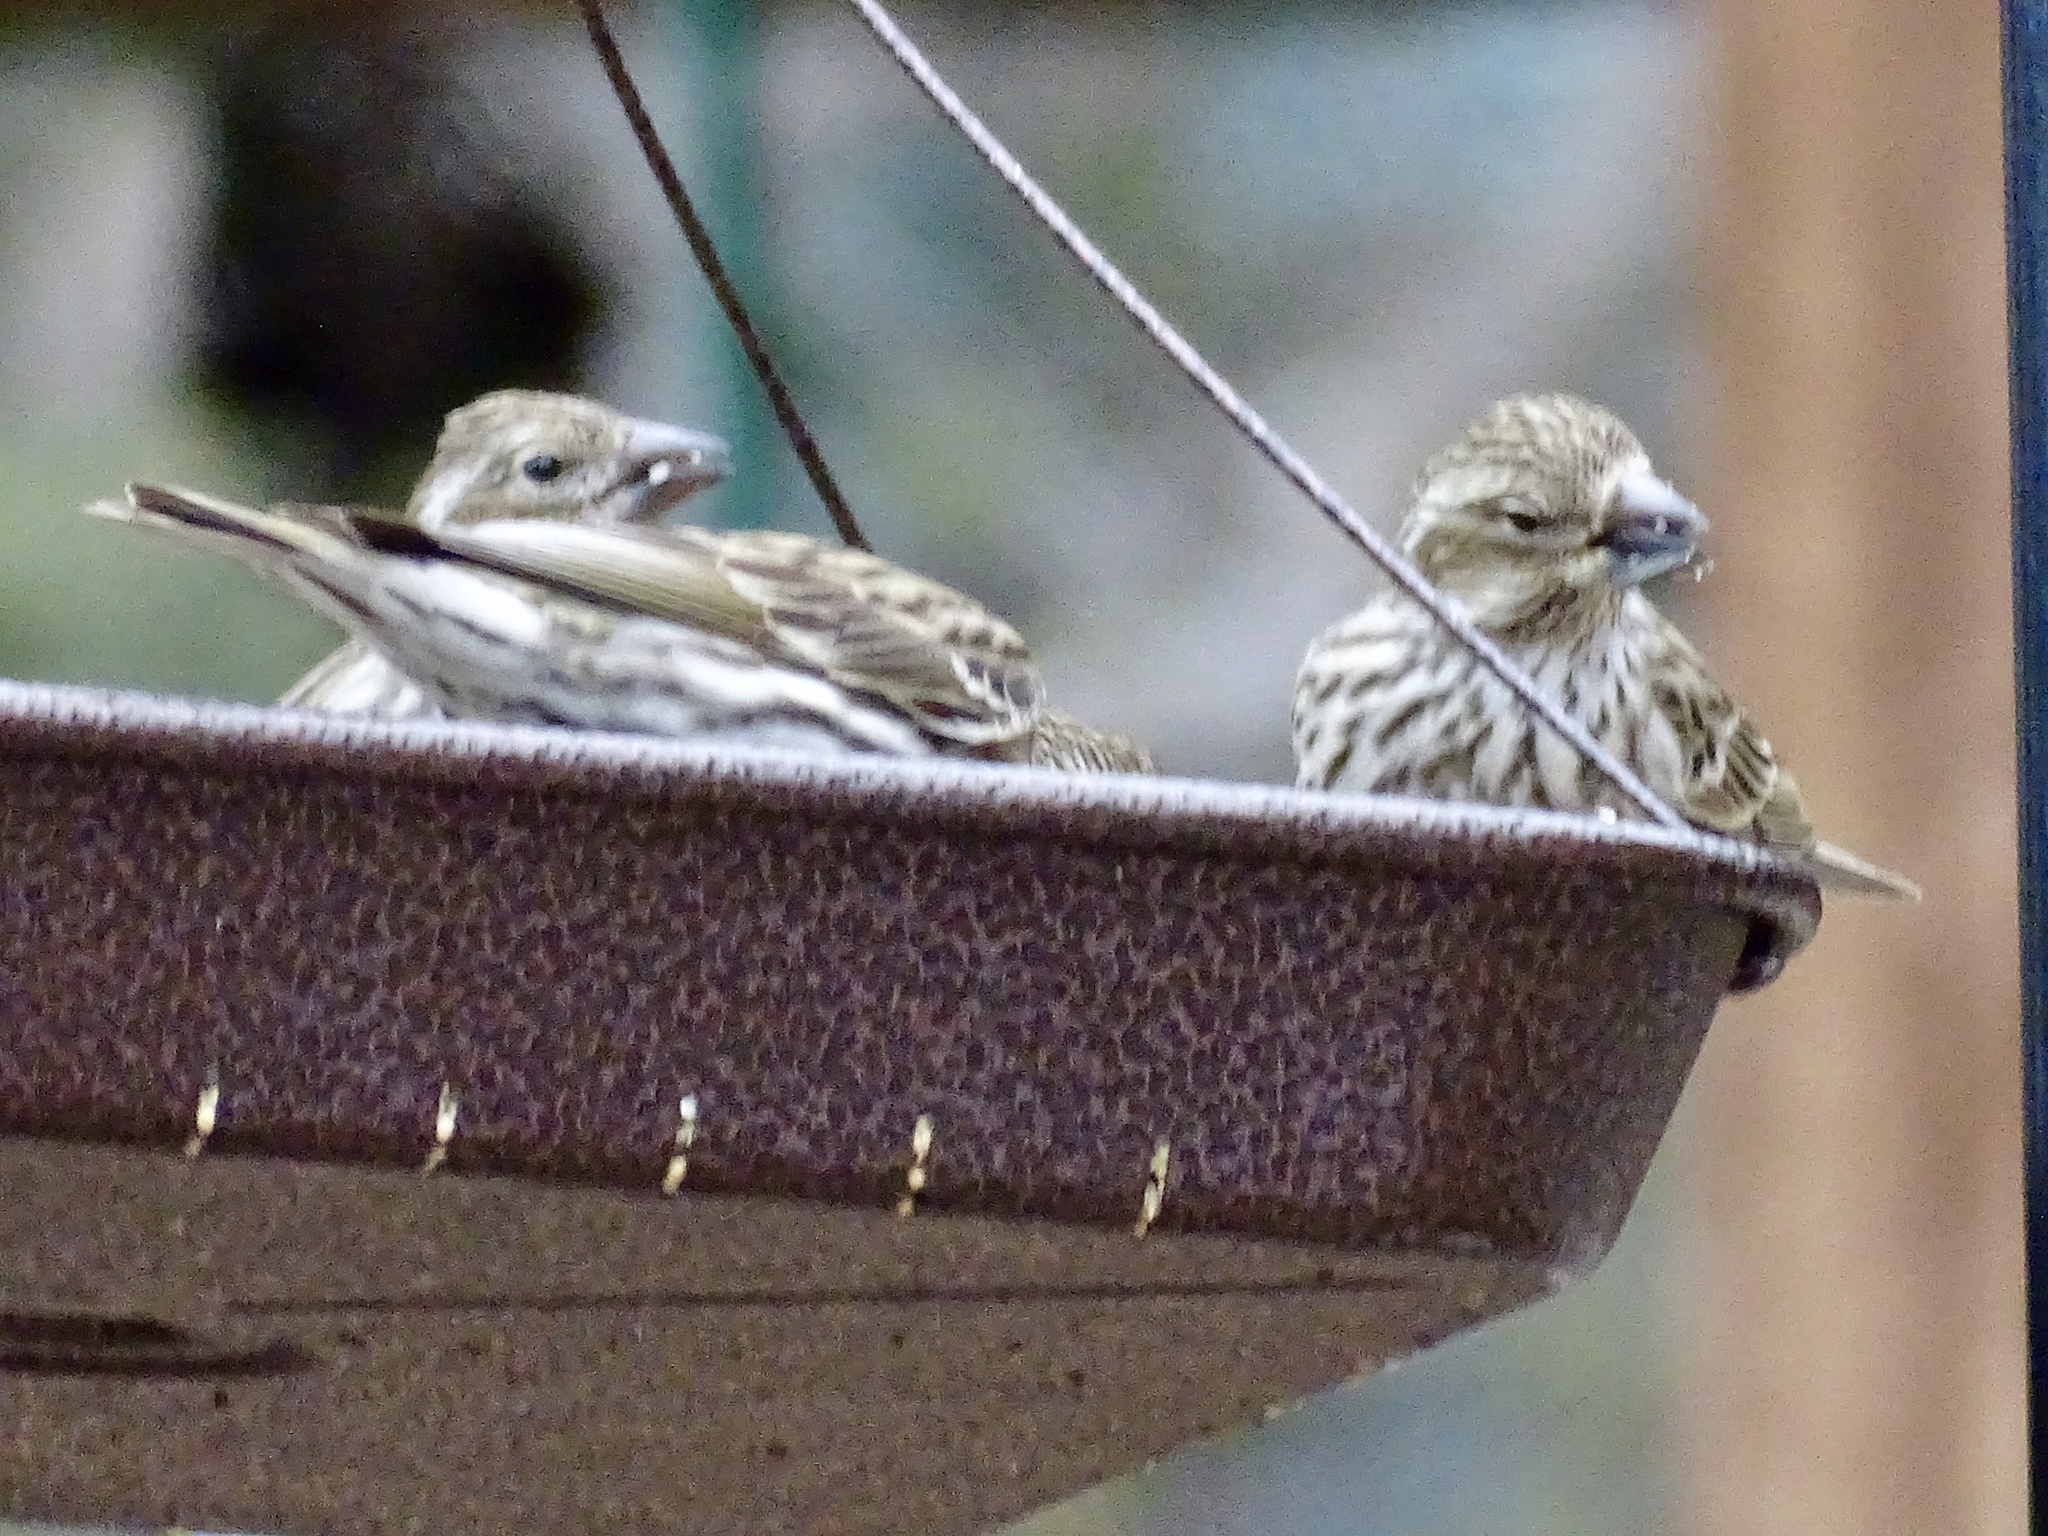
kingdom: Animalia
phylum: Chordata
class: Aves
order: Passeriformes
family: Fringillidae
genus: Haemorhous
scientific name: Haemorhous cassinii
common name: Cassin's finch
